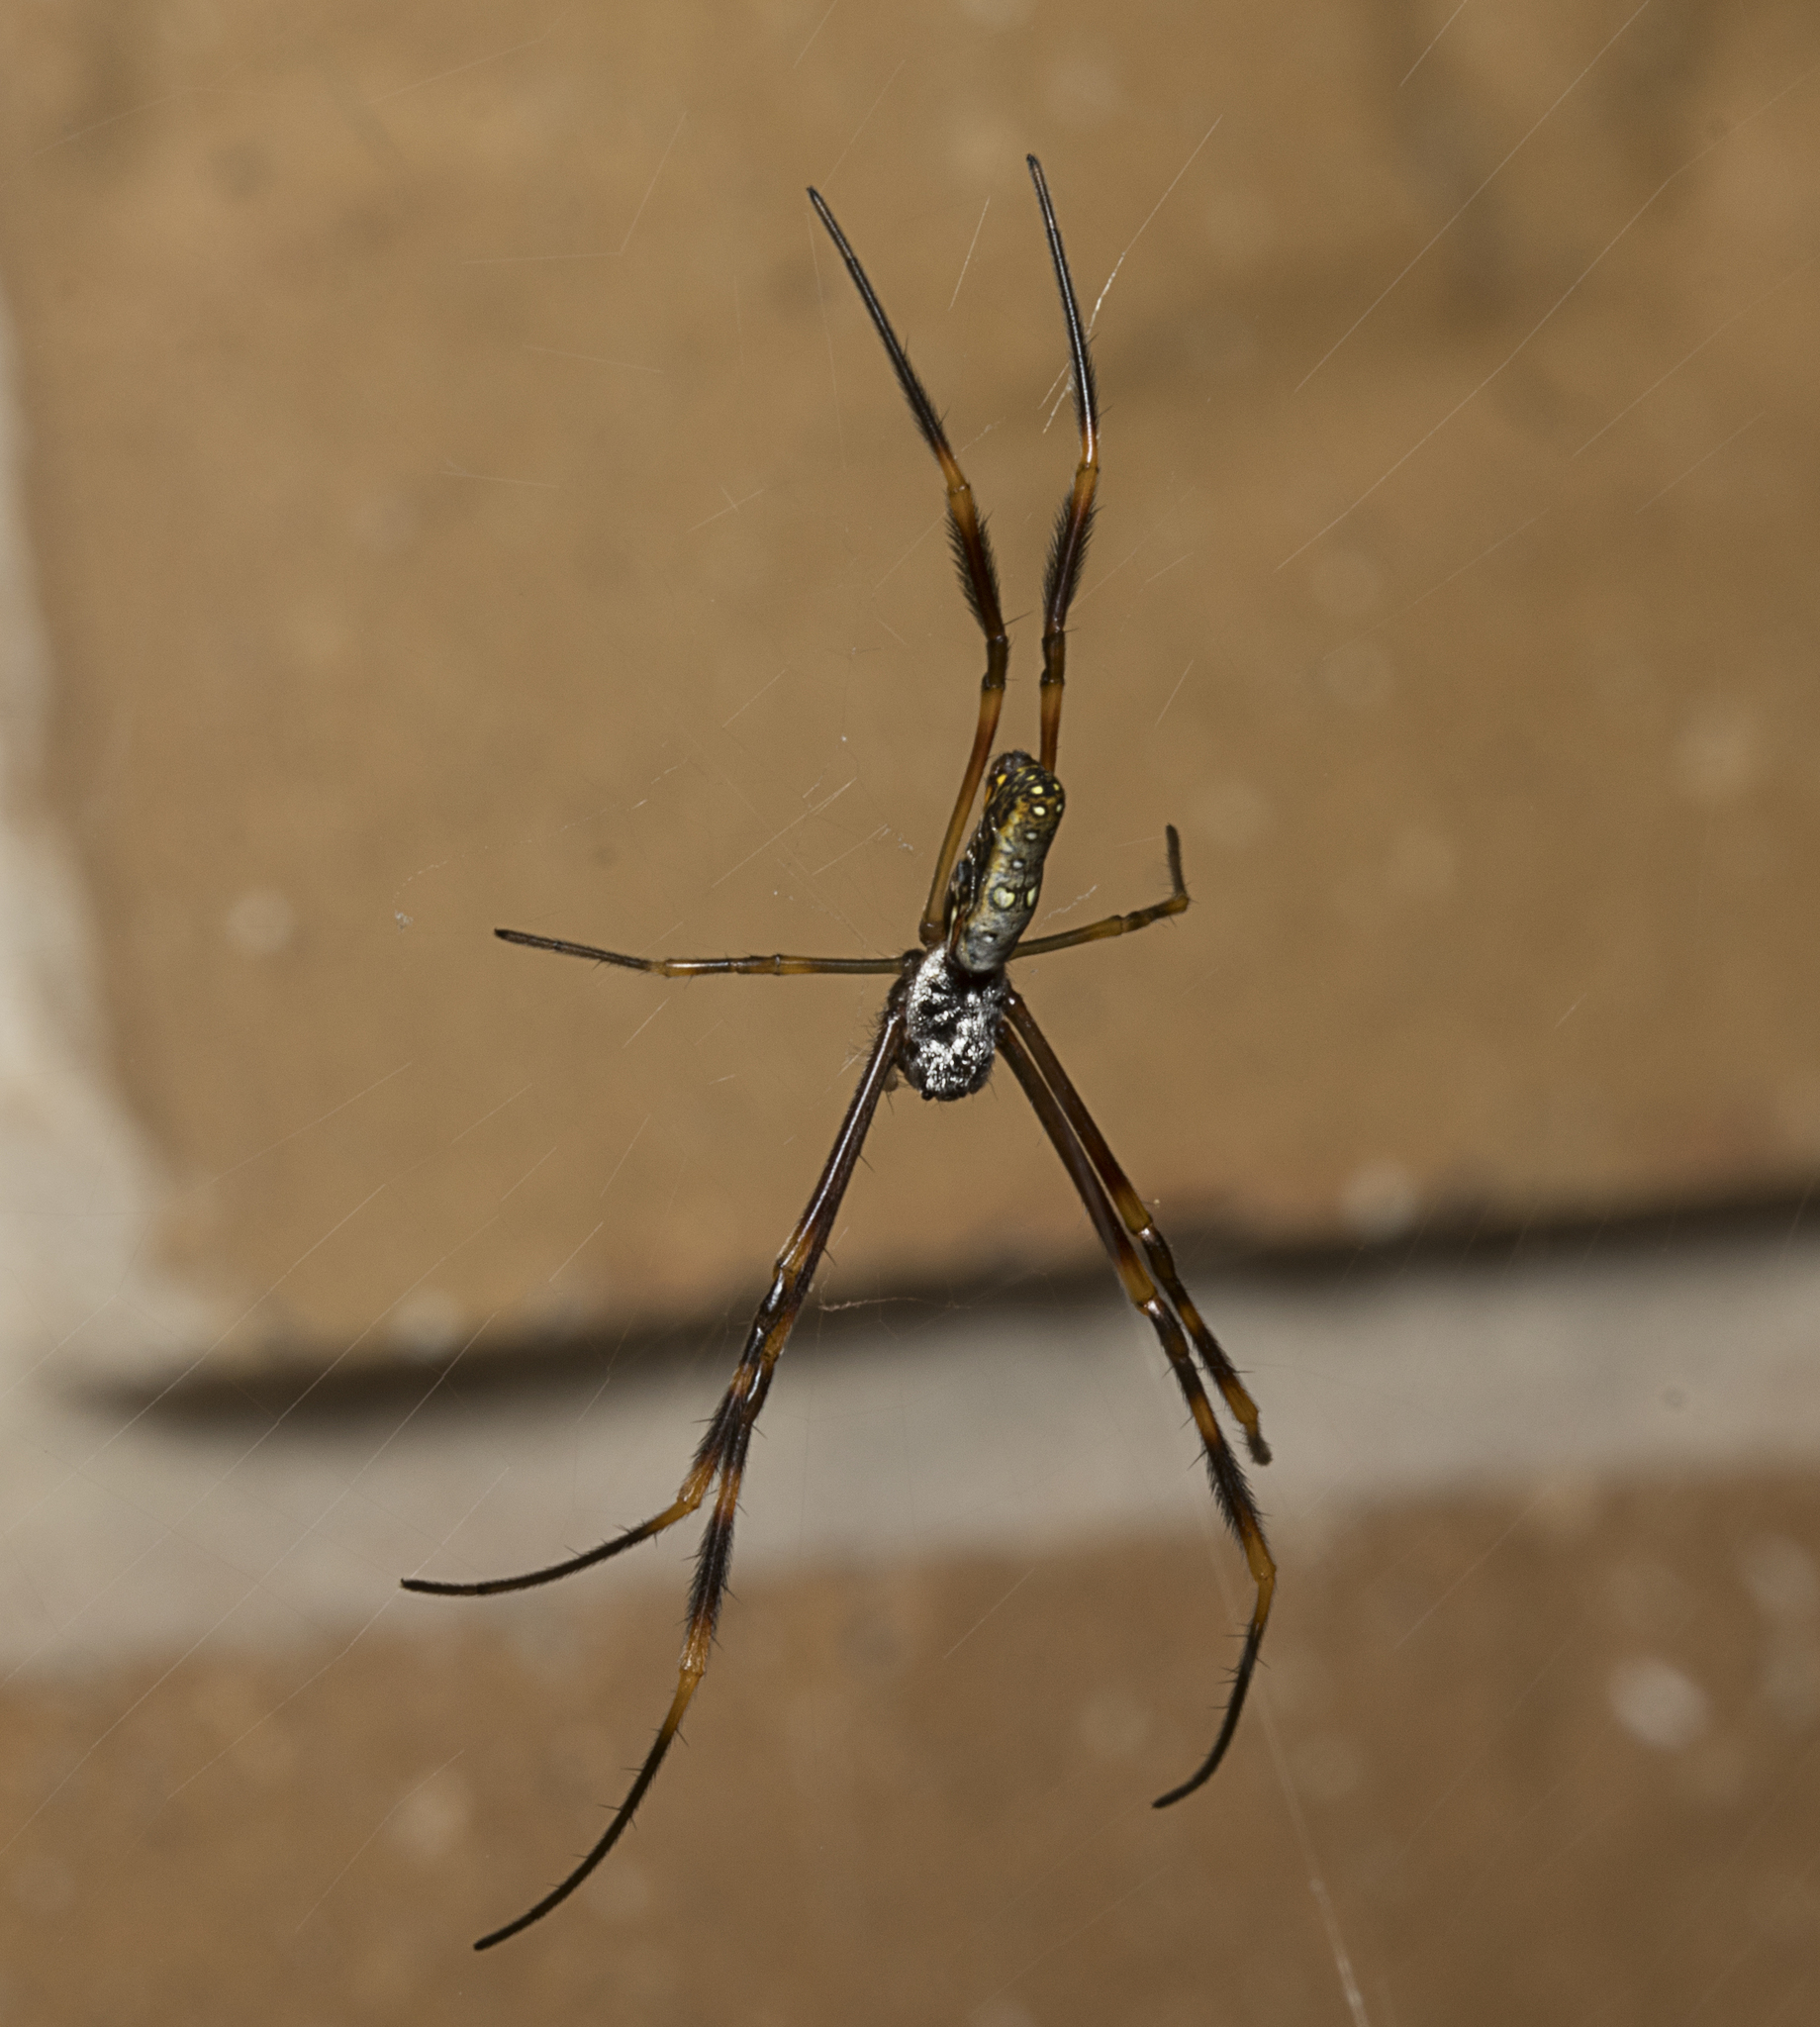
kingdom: Animalia
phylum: Arthropoda
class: Arachnida
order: Araneae
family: Araneidae
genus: Trichonephila
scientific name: Trichonephila plumipes
